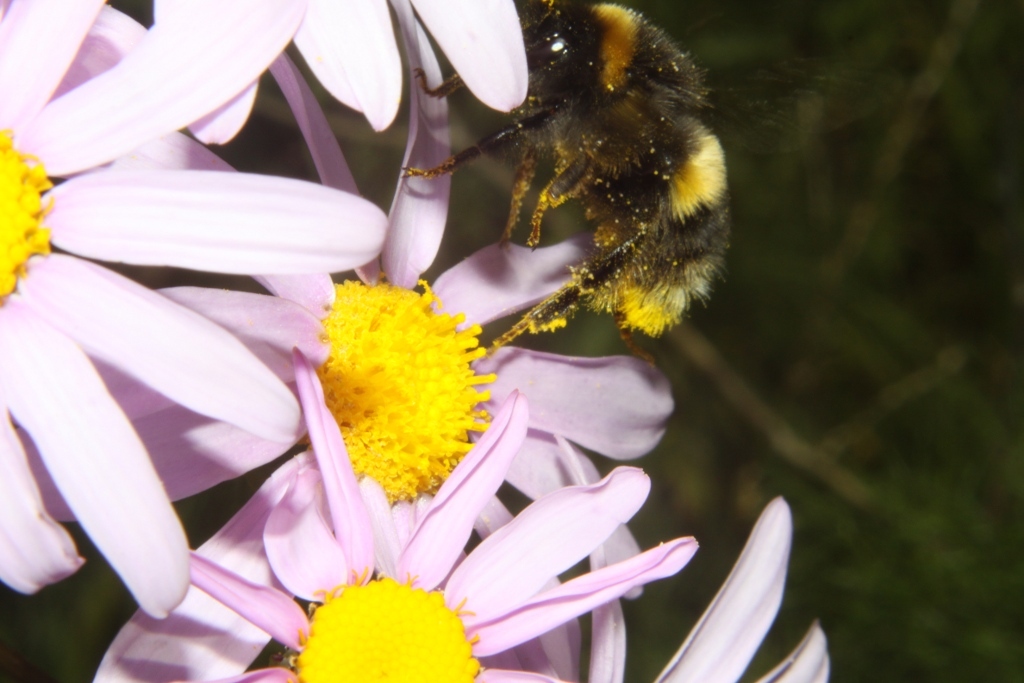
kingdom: Animalia
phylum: Arthropoda
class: Insecta
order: Hymenoptera
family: Apidae
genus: Bombus
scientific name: Bombus terrestris
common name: Buff-tailed bumblebee
